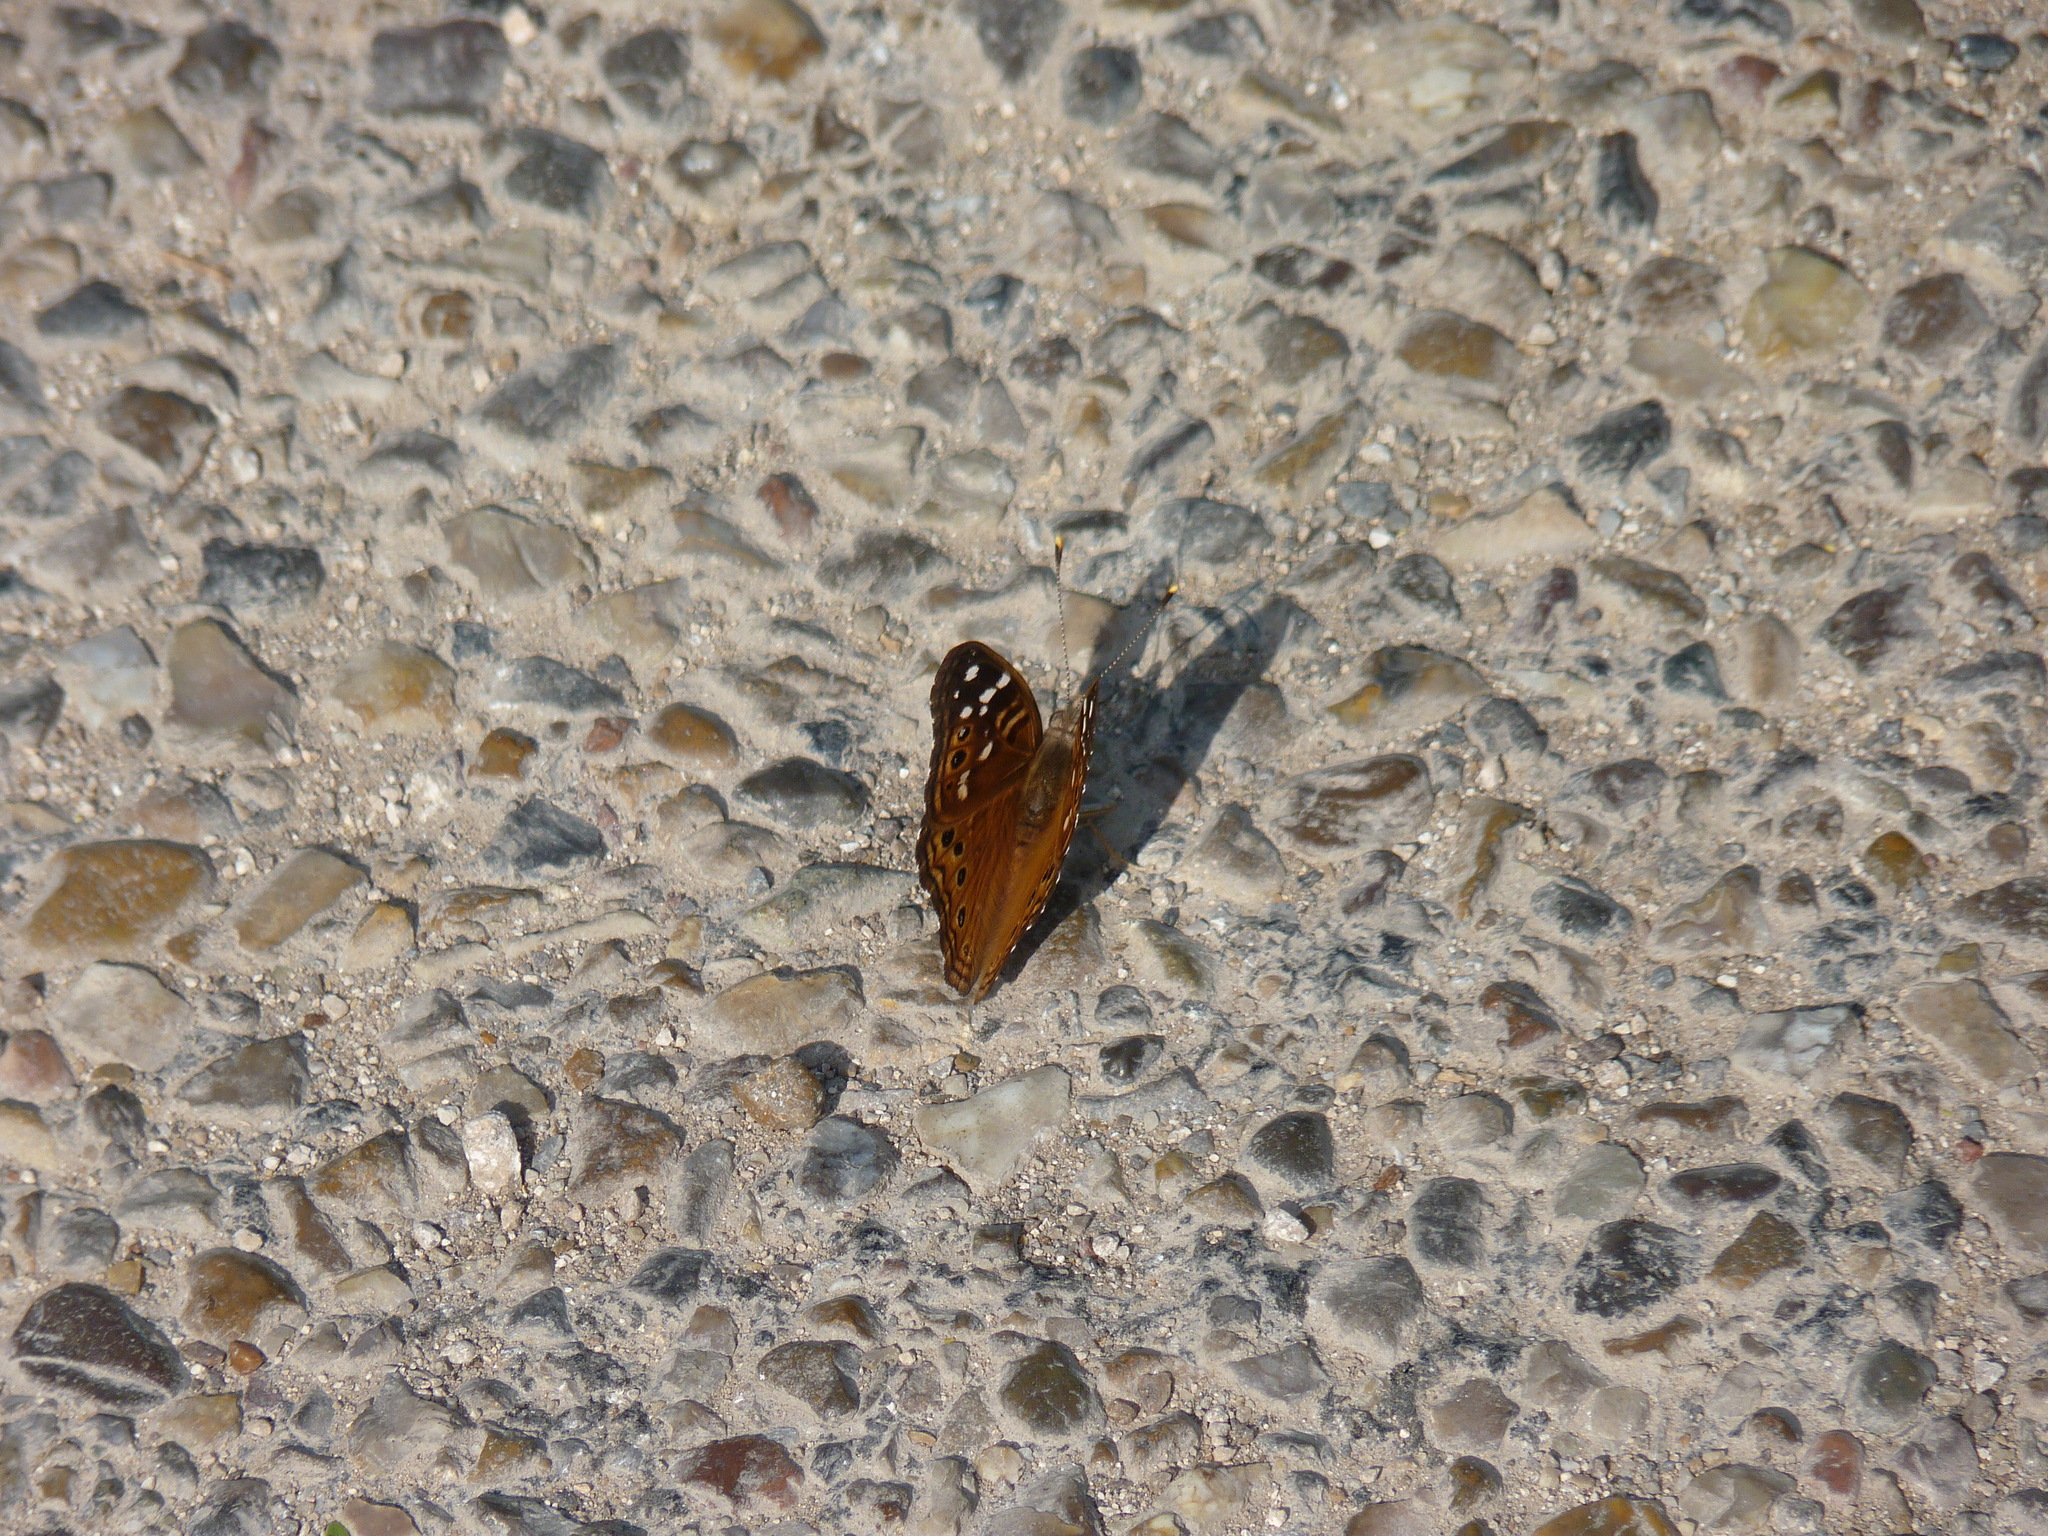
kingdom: Animalia
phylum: Arthropoda
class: Insecta
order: Lepidoptera
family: Nymphalidae
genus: Asterocampa
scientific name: Asterocampa leilia
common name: Empress leilia
